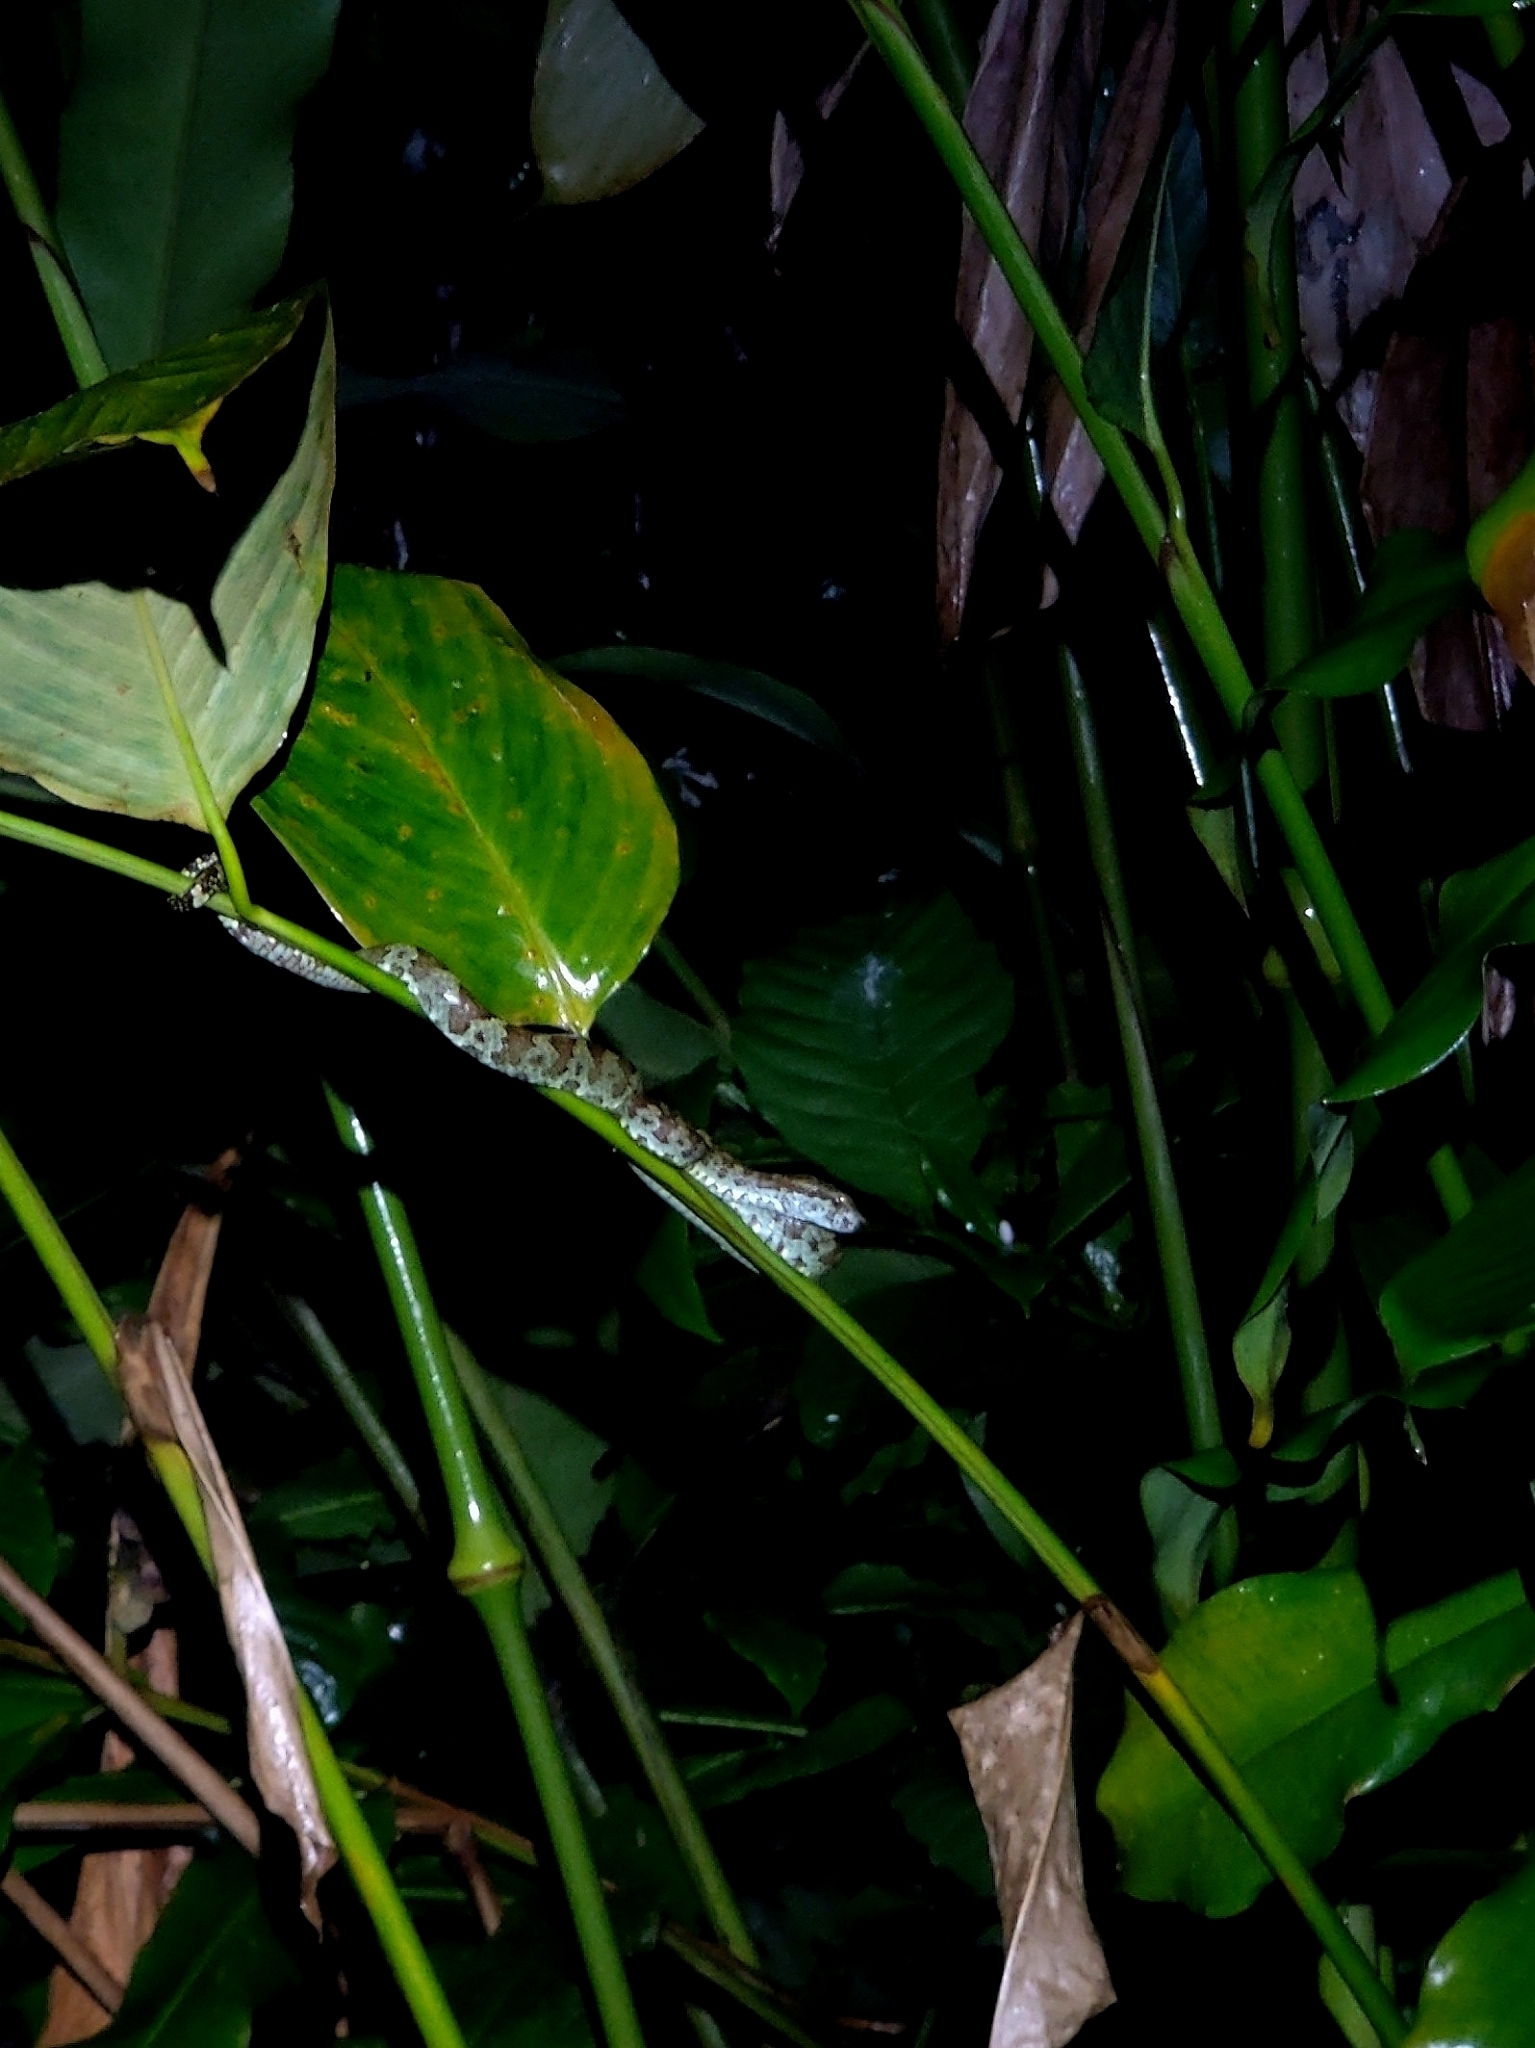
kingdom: Animalia
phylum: Chordata
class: Squamata
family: Viperidae
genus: Craspedocephalus
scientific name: Craspedocephalus malabaricus
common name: Malabarian pit viper
